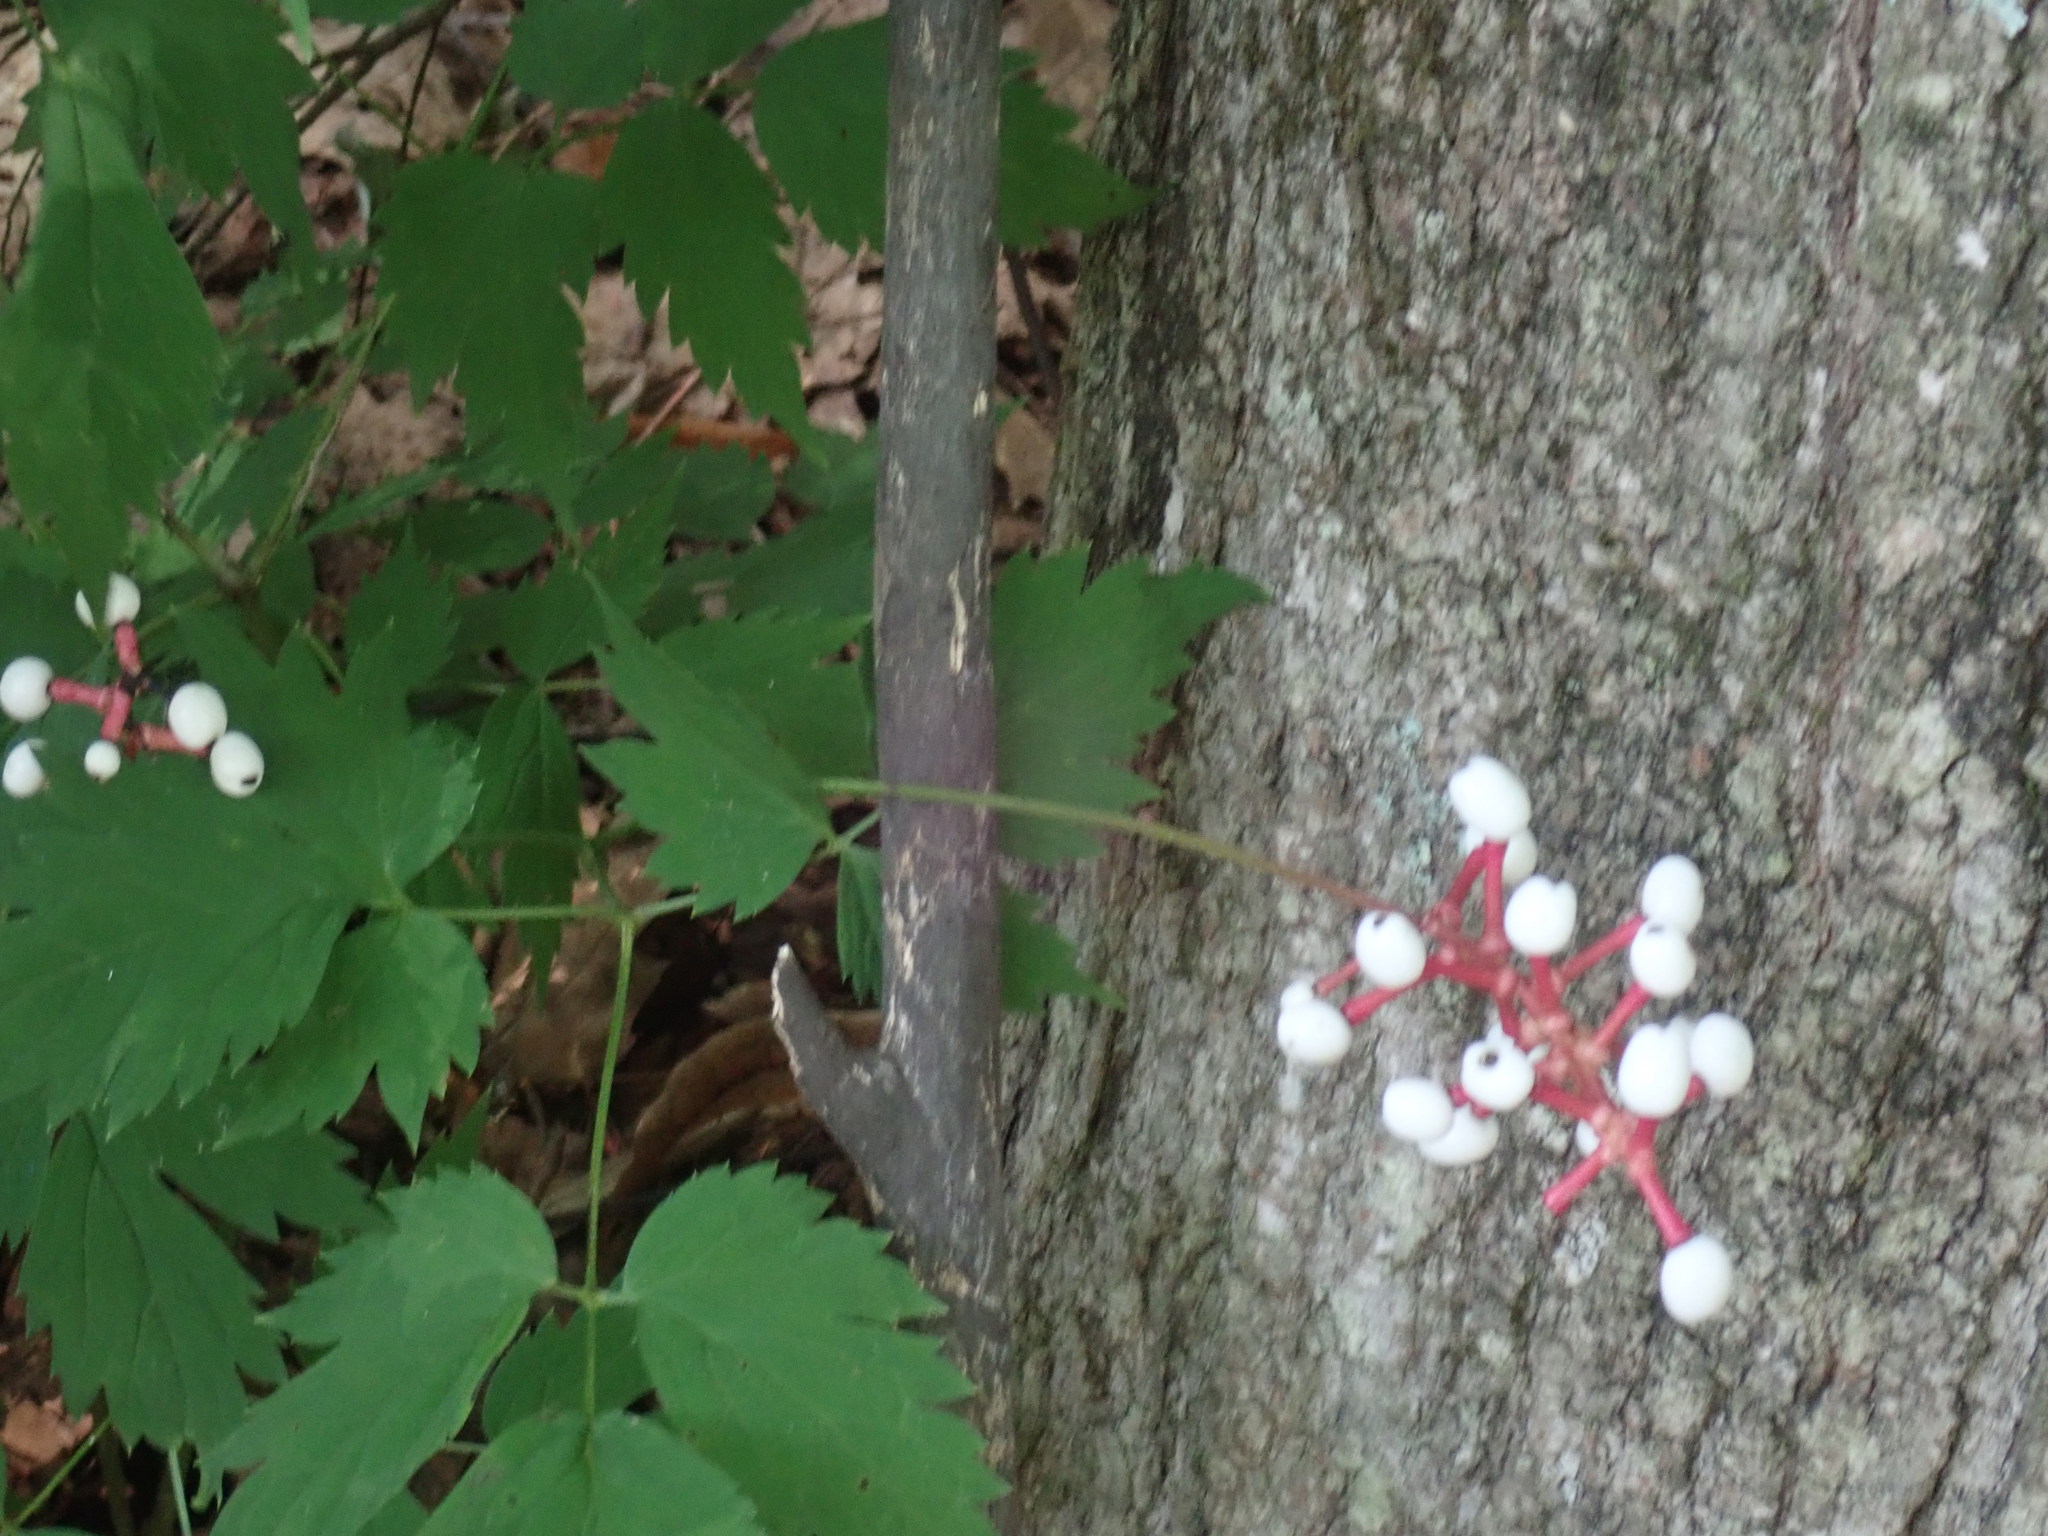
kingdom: Plantae
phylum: Tracheophyta
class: Magnoliopsida
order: Ranunculales
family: Ranunculaceae
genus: Actaea
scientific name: Actaea pachypoda
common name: Doll's-eyes
